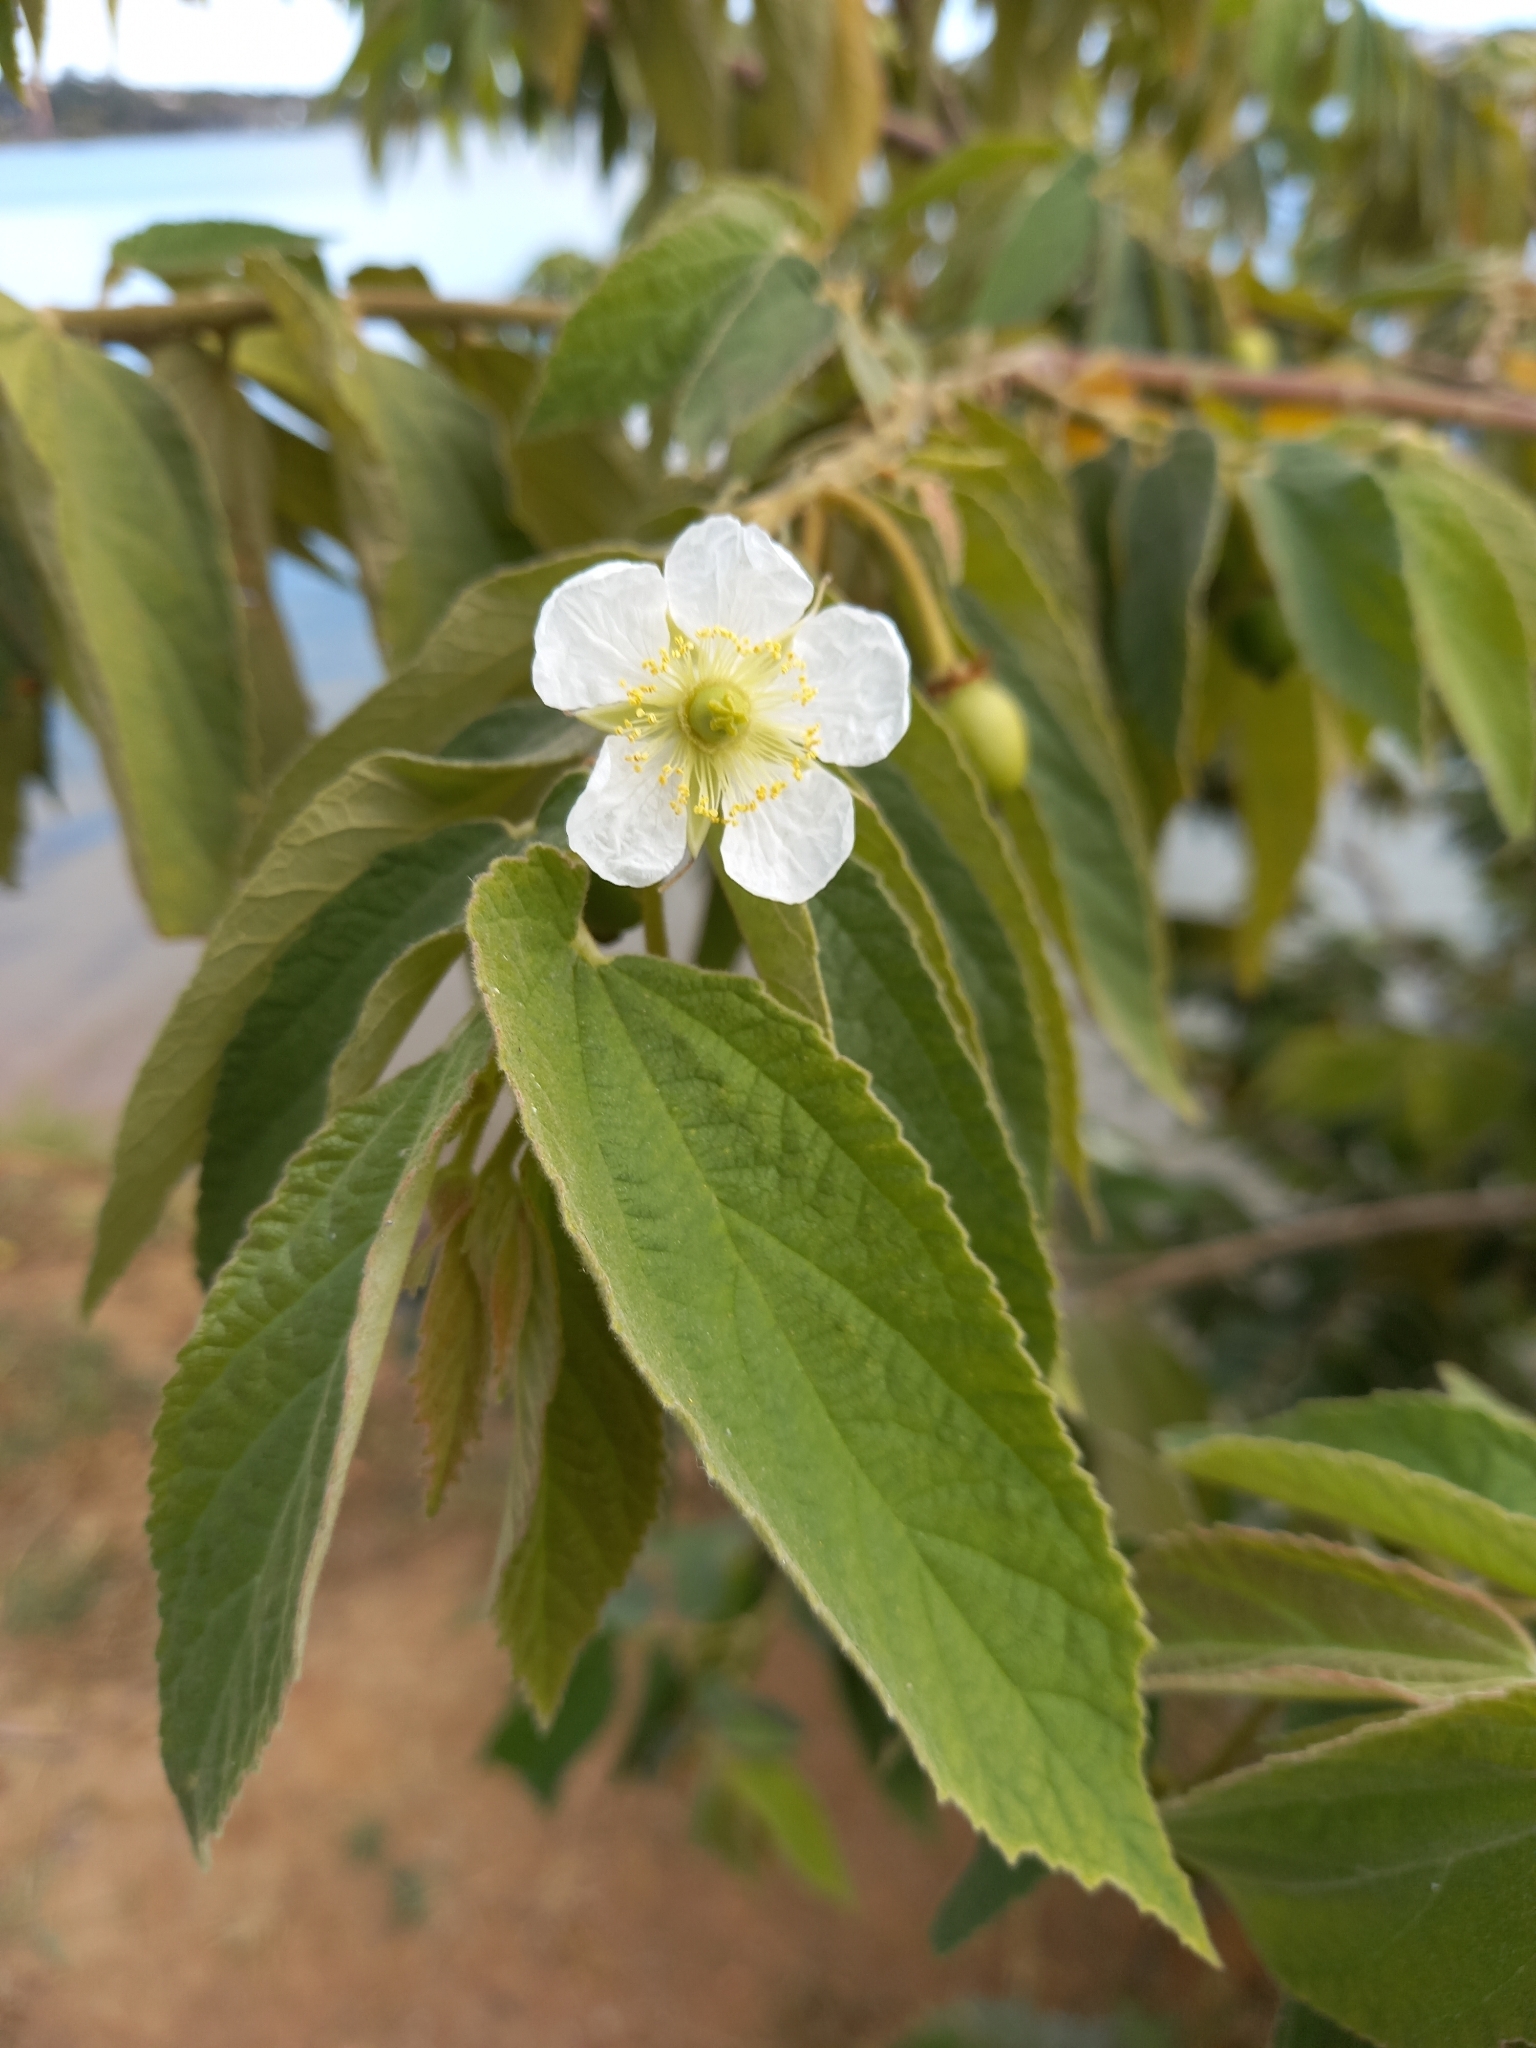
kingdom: Plantae
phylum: Tracheophyta
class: Magnoliopsida
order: Malvales
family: Muntingiaceae
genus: Muntingia
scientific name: Muntingia calabura
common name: Strawberrytree
